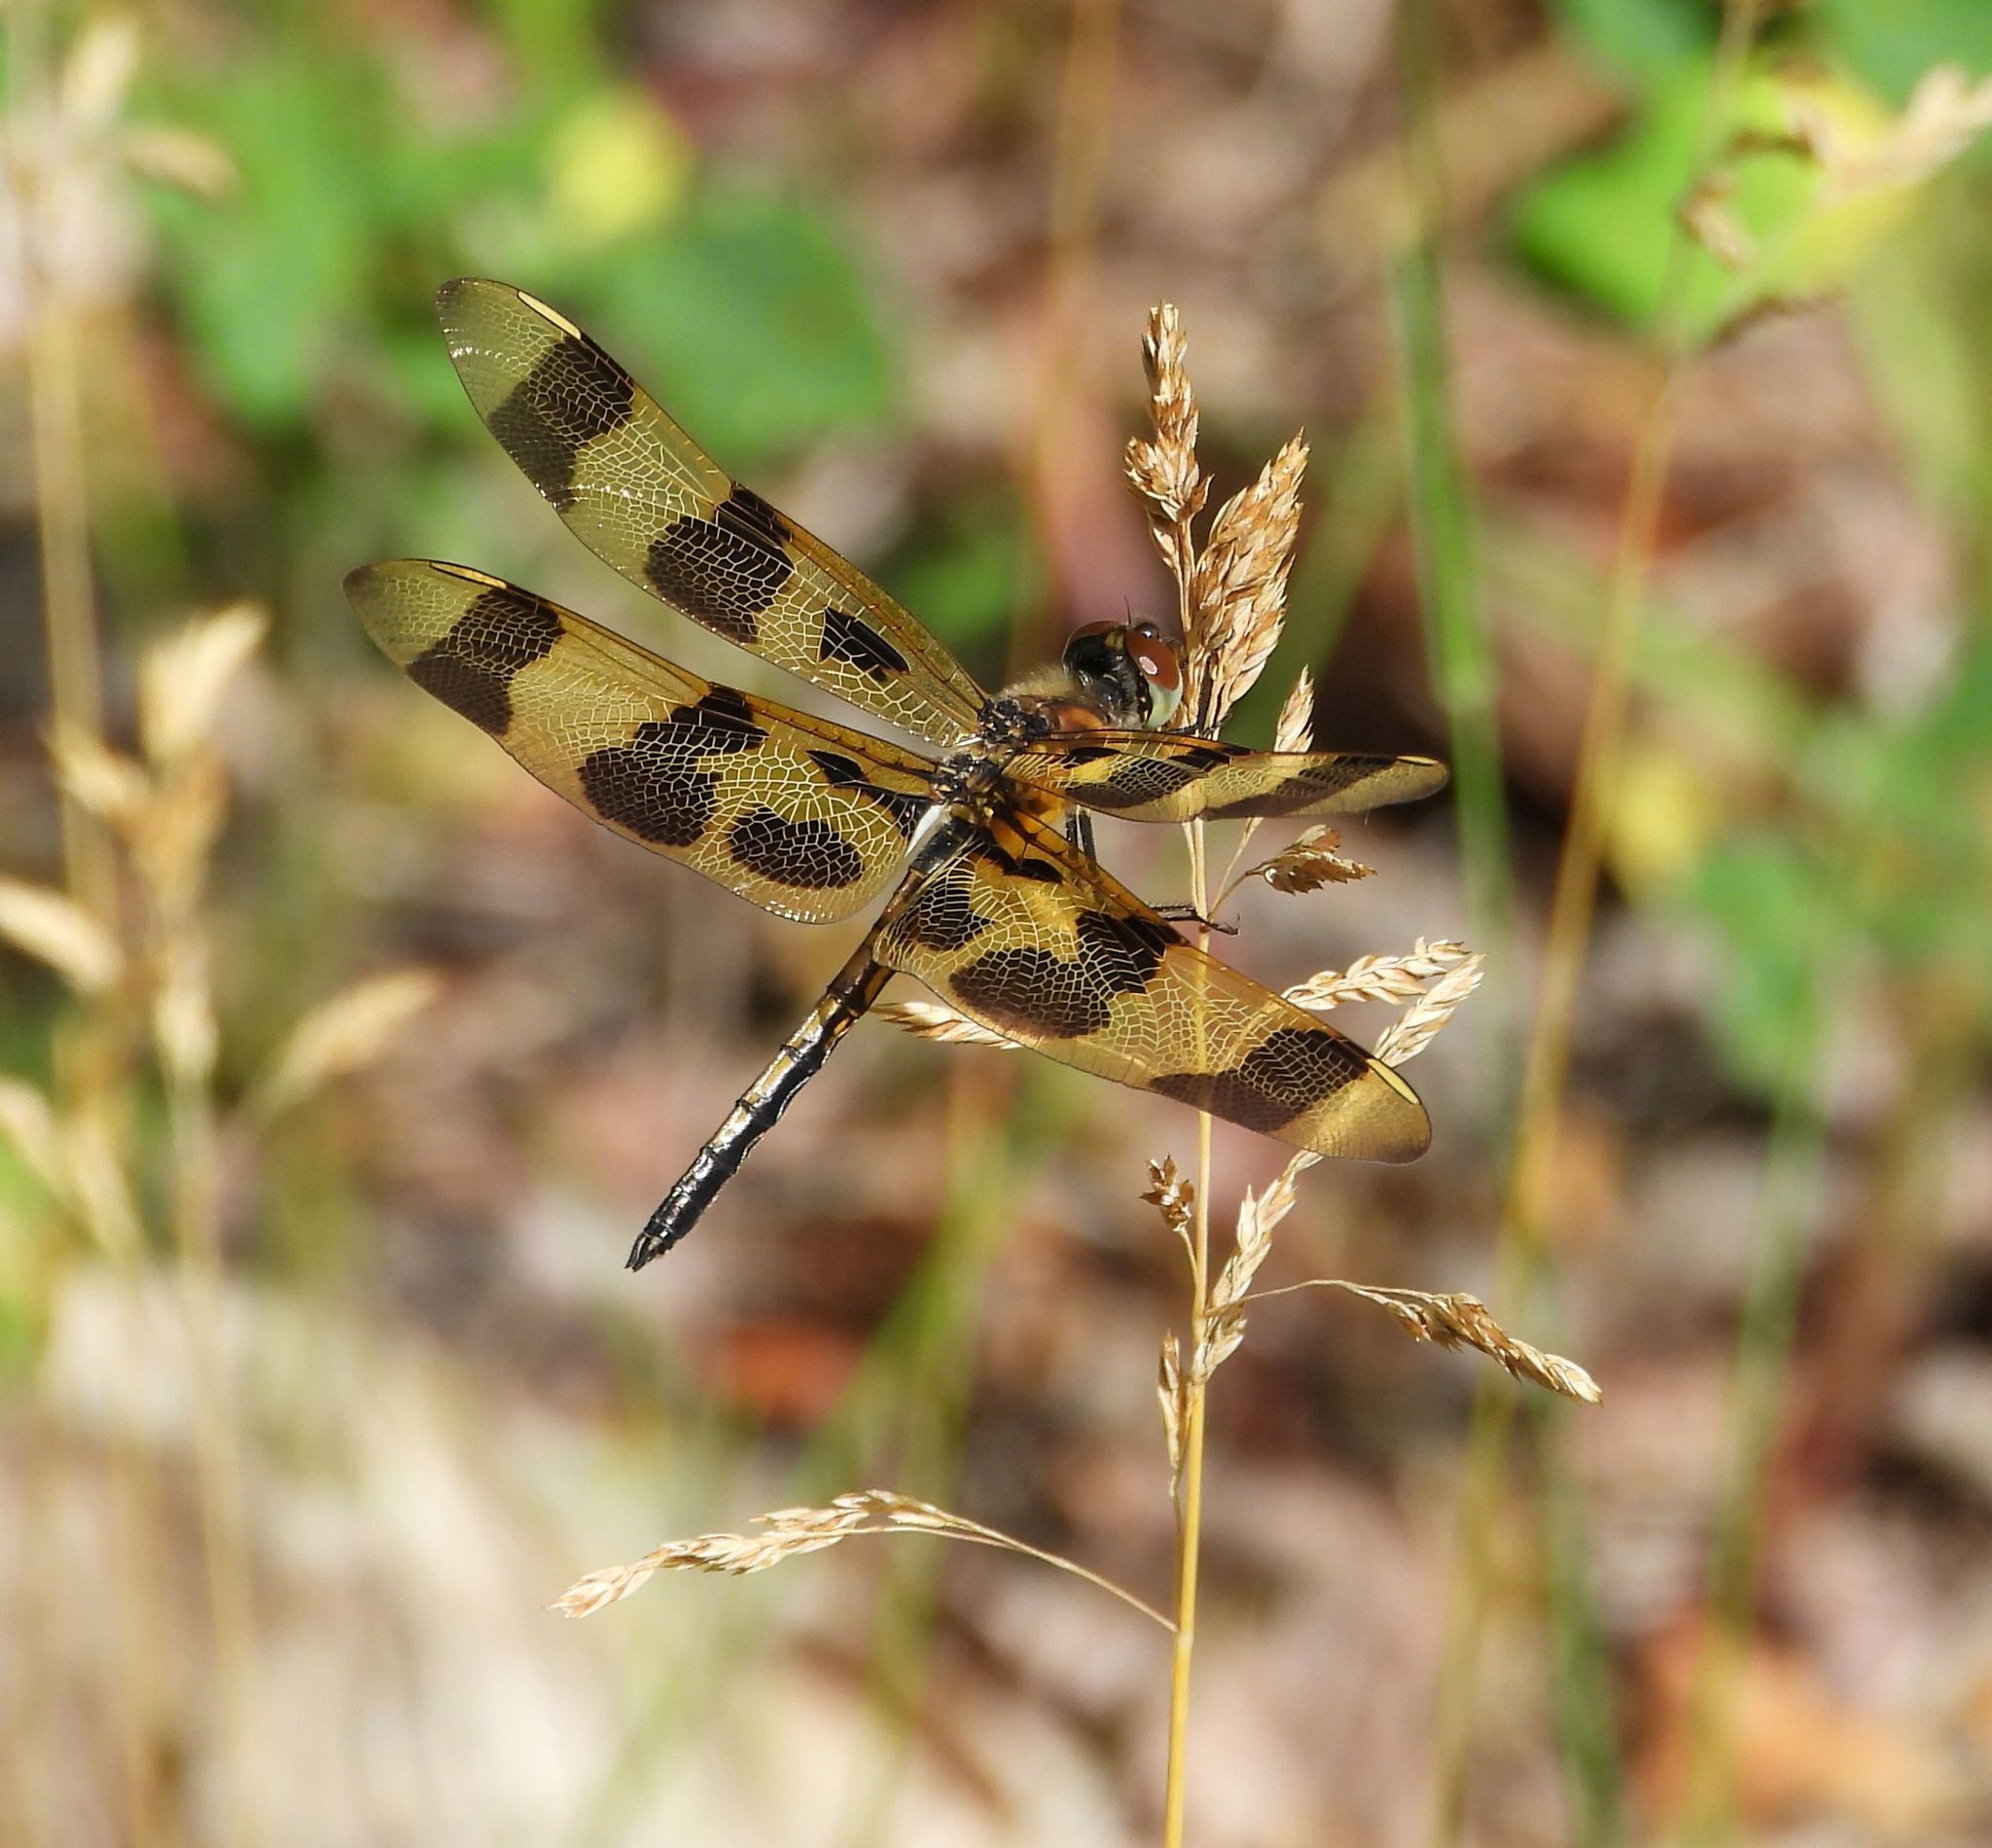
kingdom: Animalia
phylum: Arthropoda
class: Insecta
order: Odonata
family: Libellulidae
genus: Celithemis
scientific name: Celithemis eponina
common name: Halloween pennant
